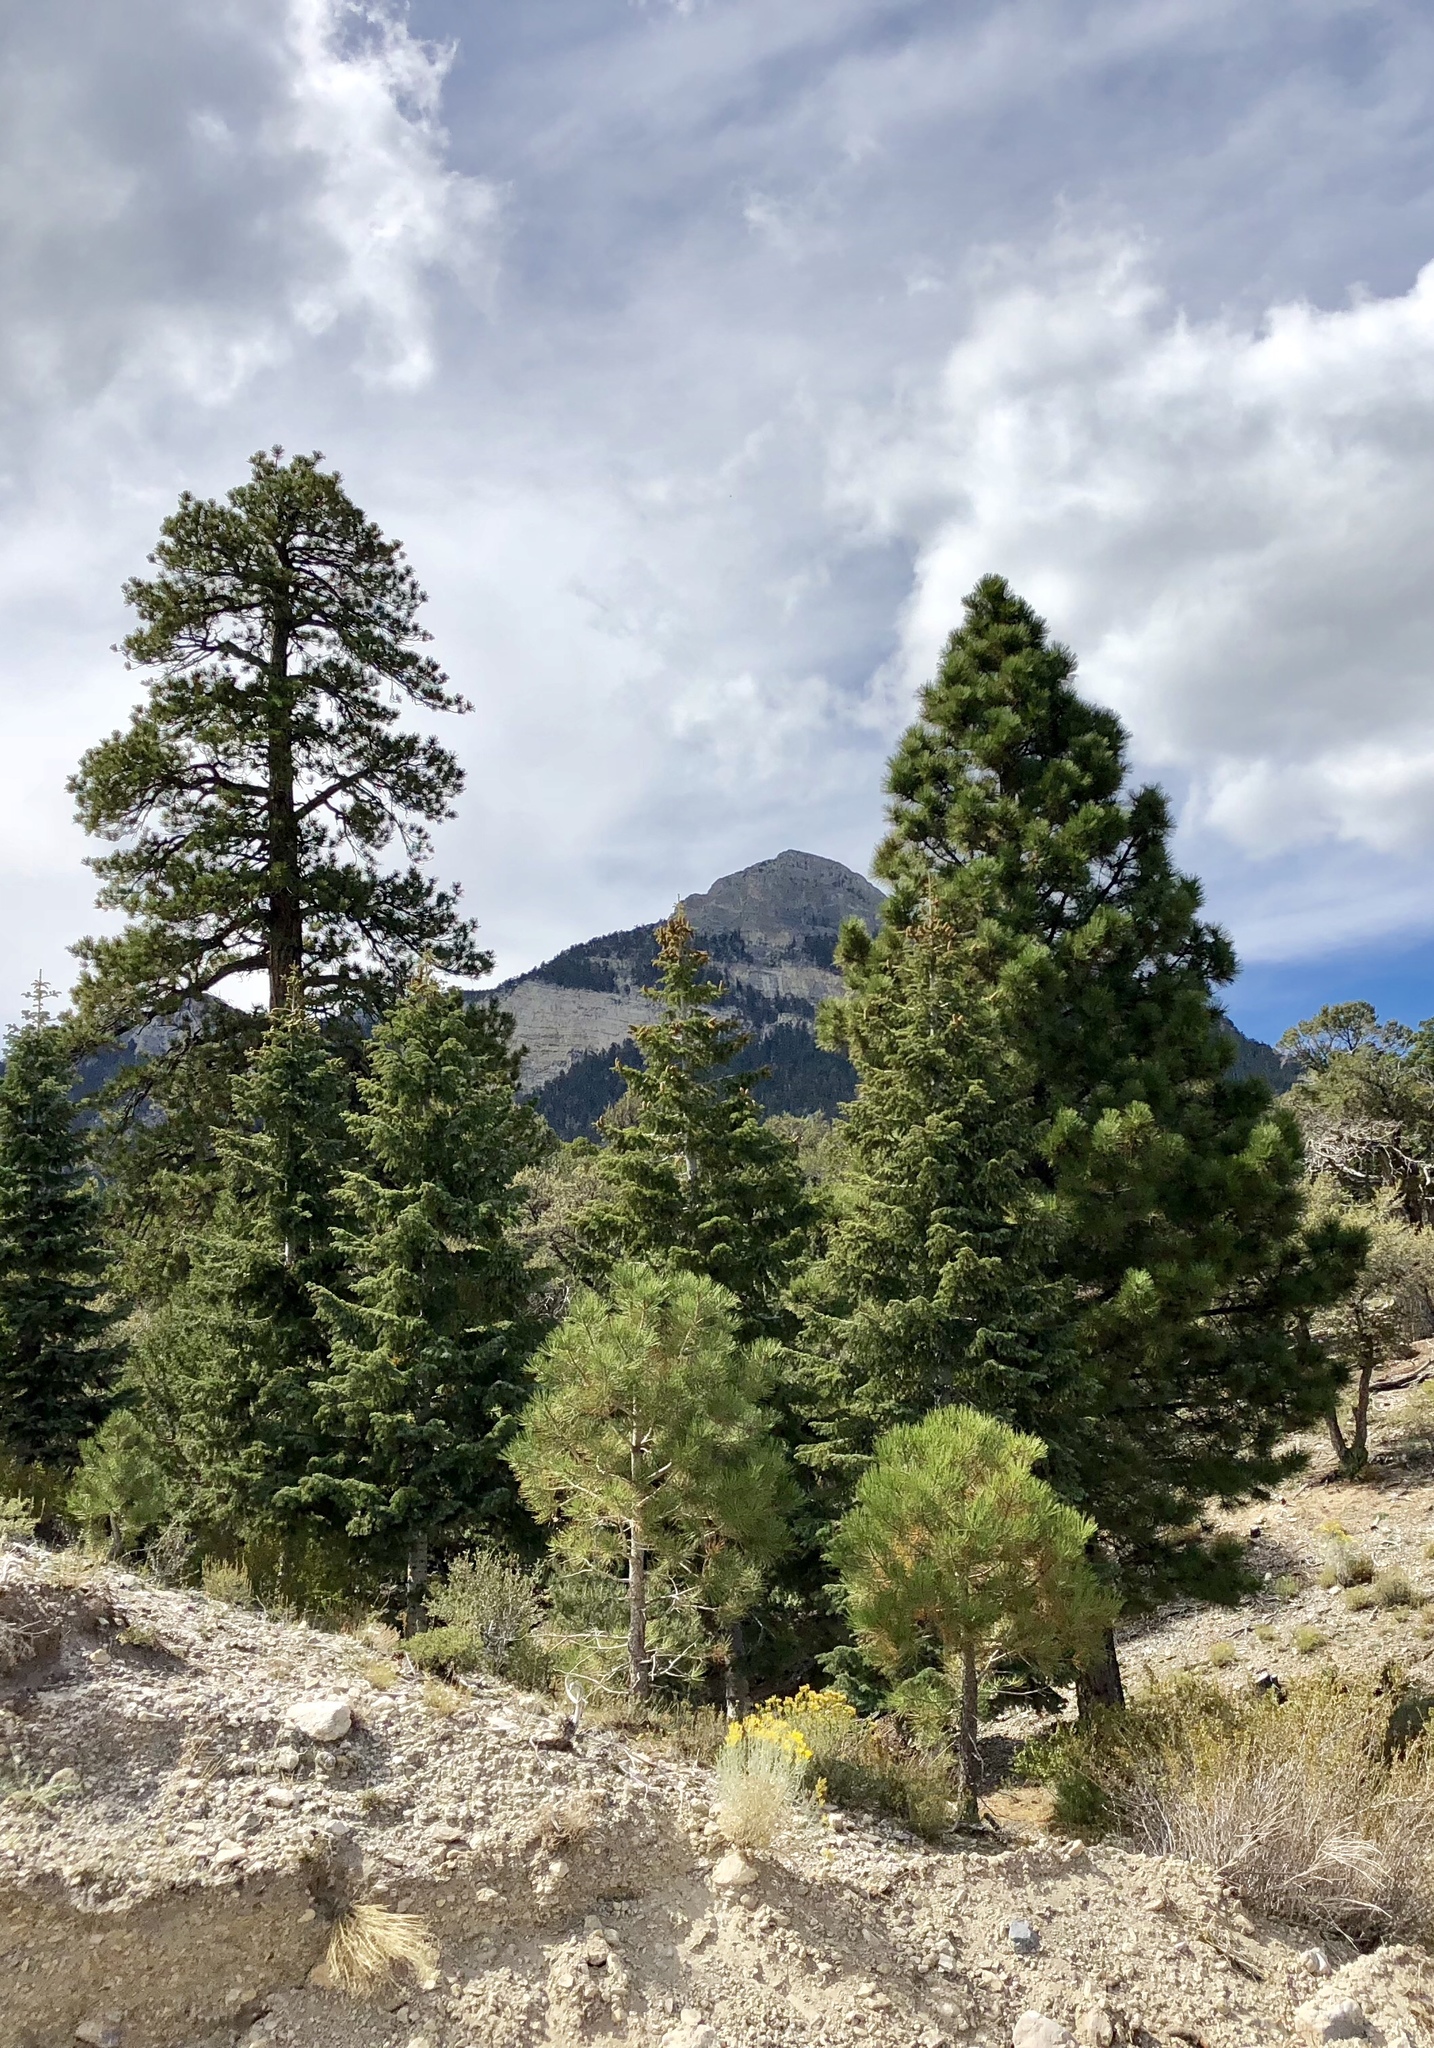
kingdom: Plantae
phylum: Tracheophyta
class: Pinopsida
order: Pinales
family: Pinaceae
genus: Pinus
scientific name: Pinus ponderosa
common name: Western yellow-pine
